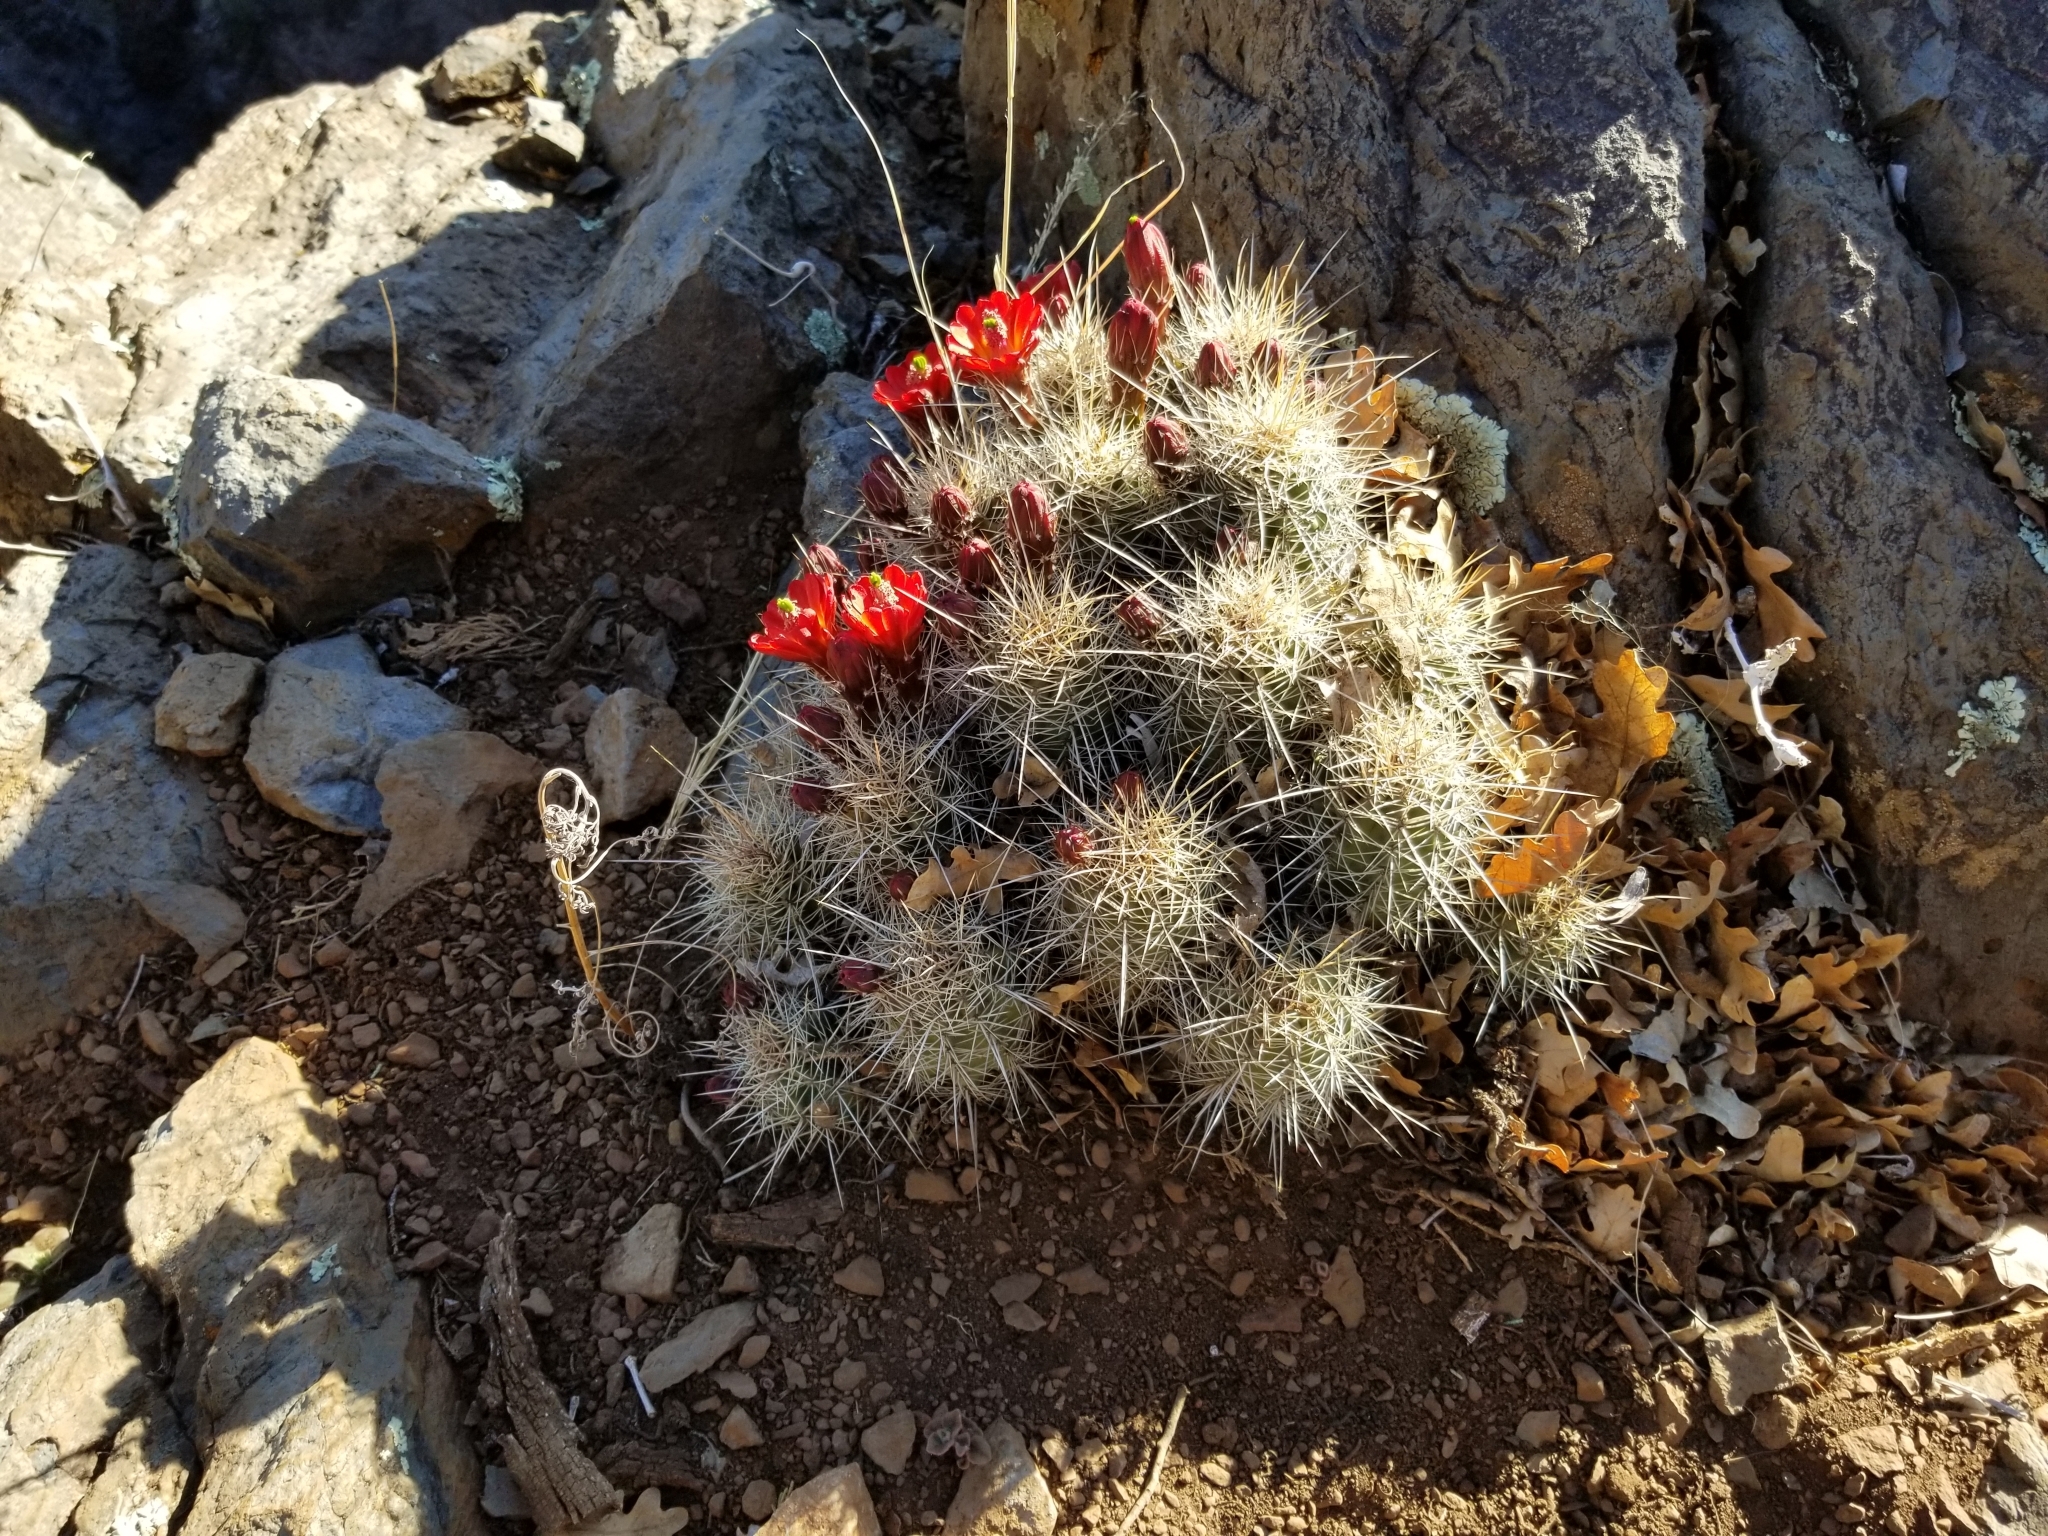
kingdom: Plantae
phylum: Tracheophyta
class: Magnoliopsida
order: Caryophyllales
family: Cactaceae
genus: Echinocereus
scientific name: Echinocereus bakeri
